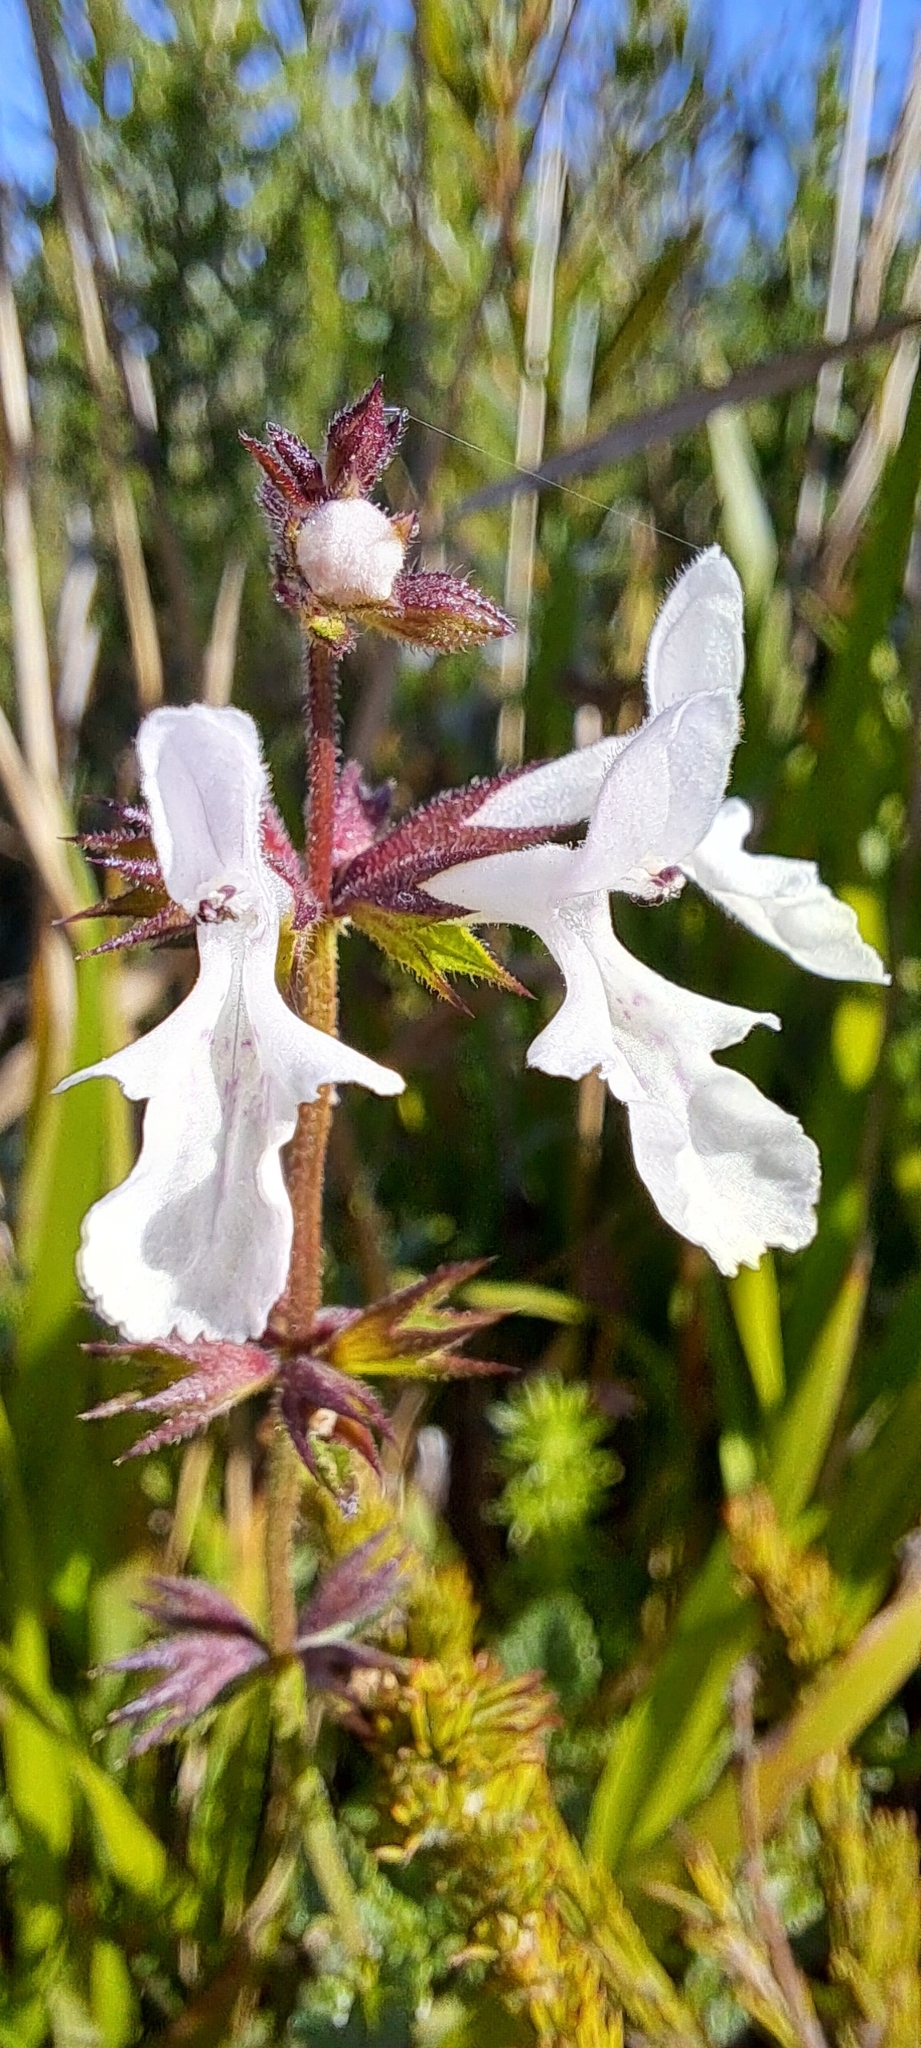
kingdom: Plantae
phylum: Tracheophyta
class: Magnoliopsida
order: Lamiales
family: Lamiaceae
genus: Stachys
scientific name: Stachys aethiopica
